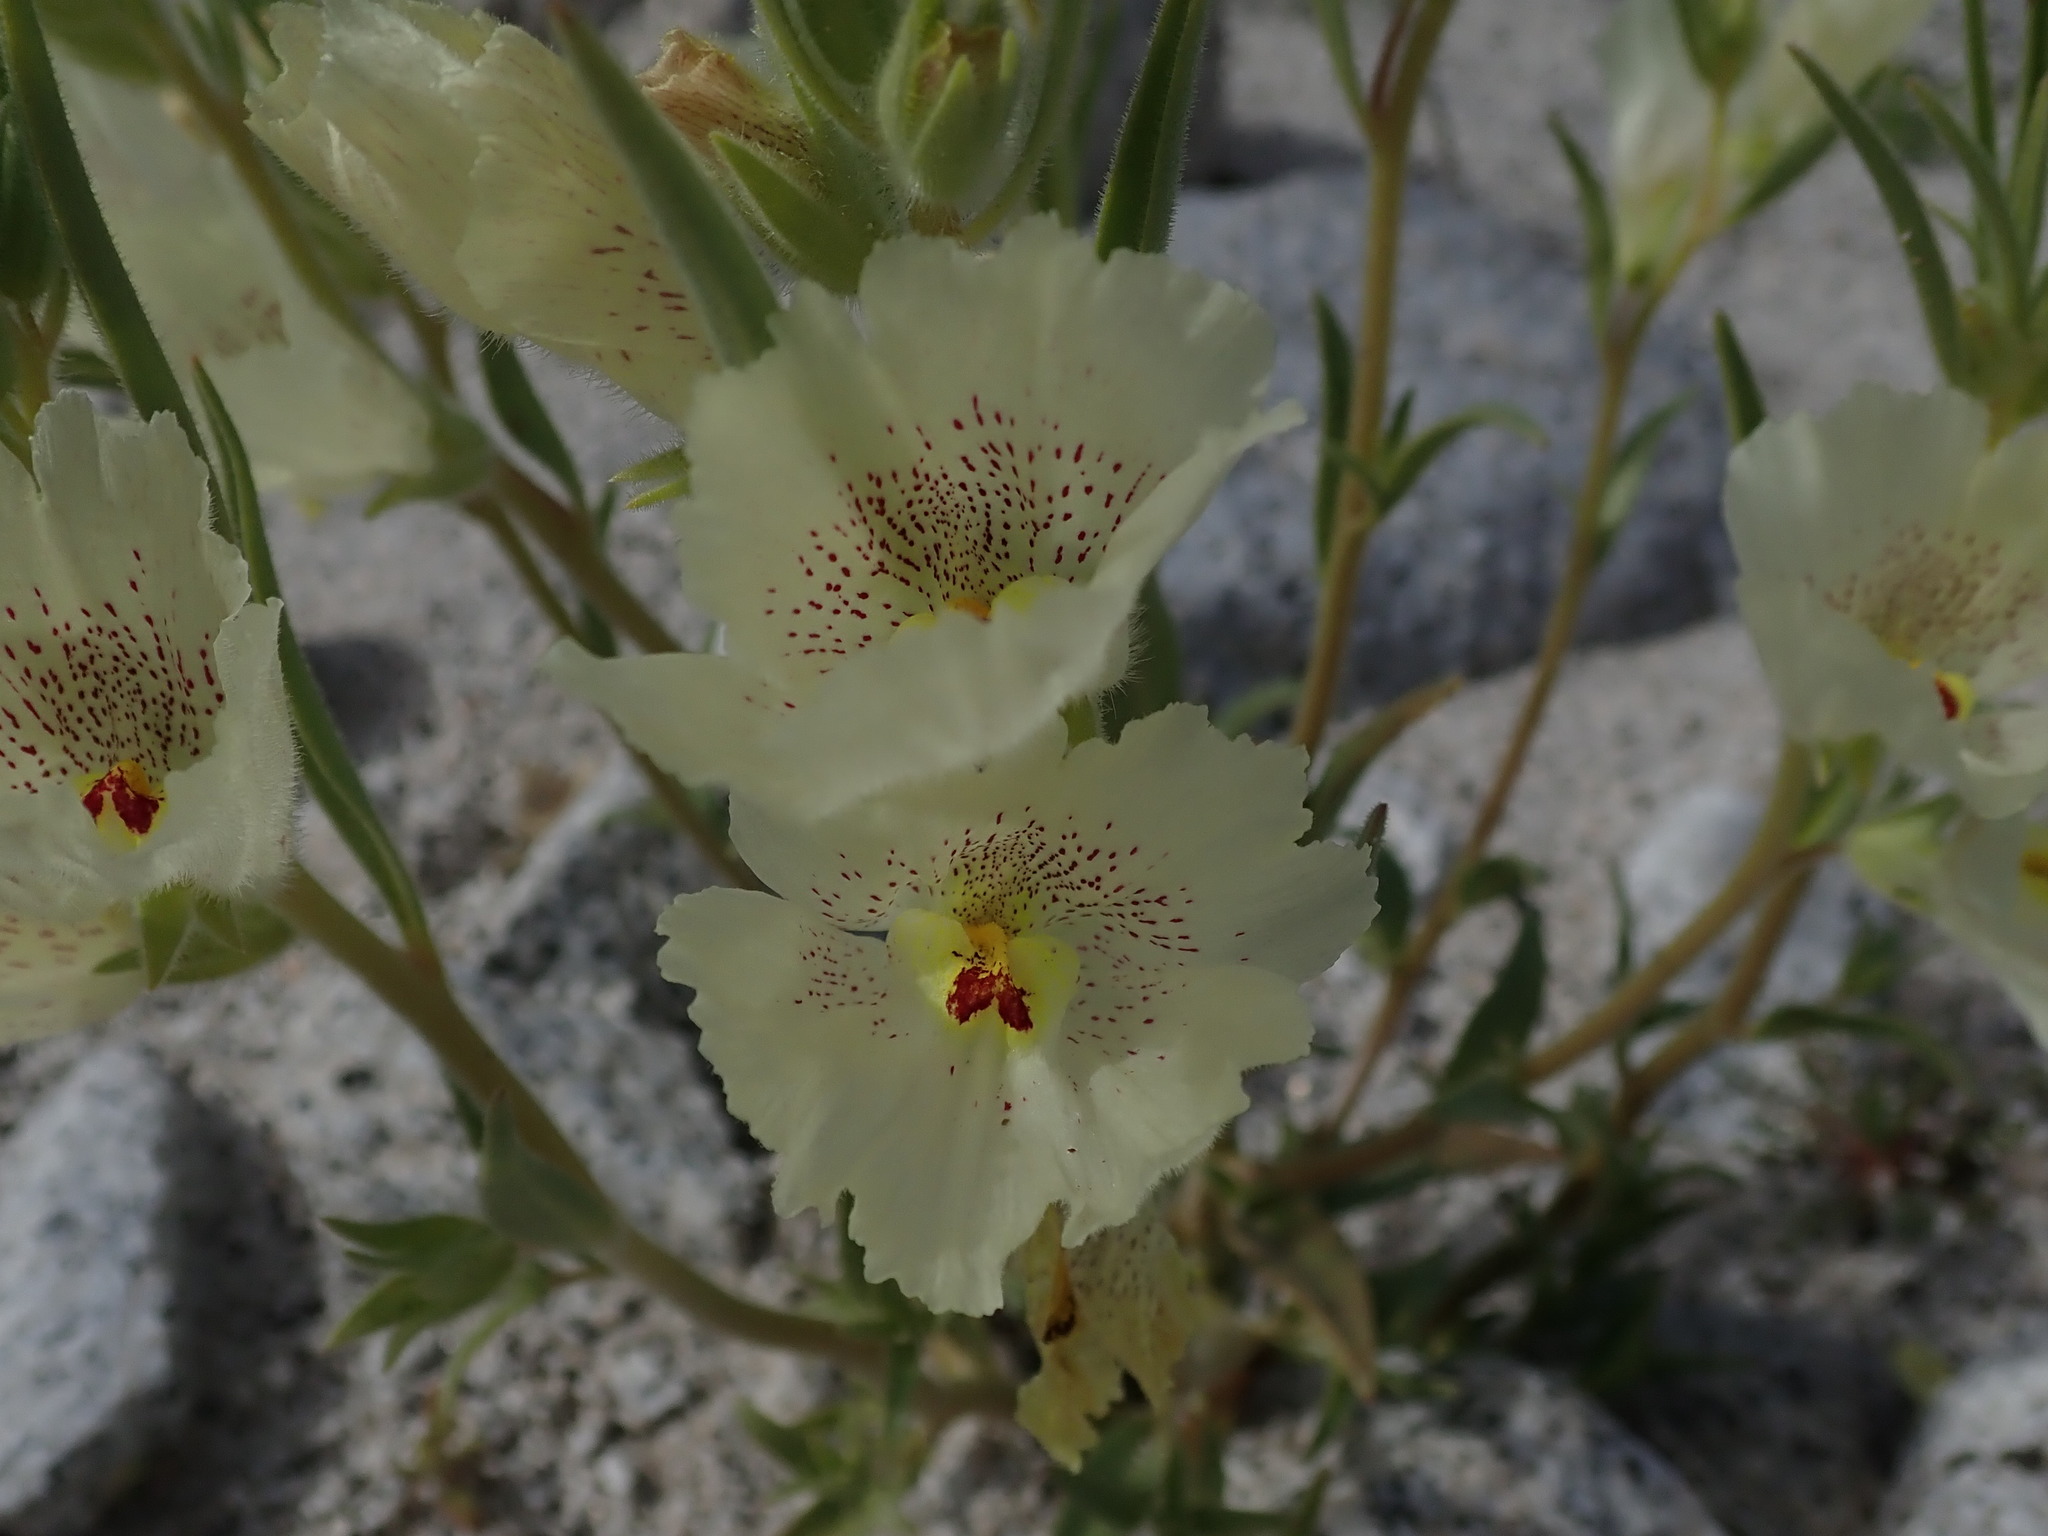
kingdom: Plantae
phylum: Tracheophyta
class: Magnoliopsida
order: Lamiales
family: Plantaginaceae
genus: Mohavea
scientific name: Mohavea confertiflora
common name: Ghost flower
